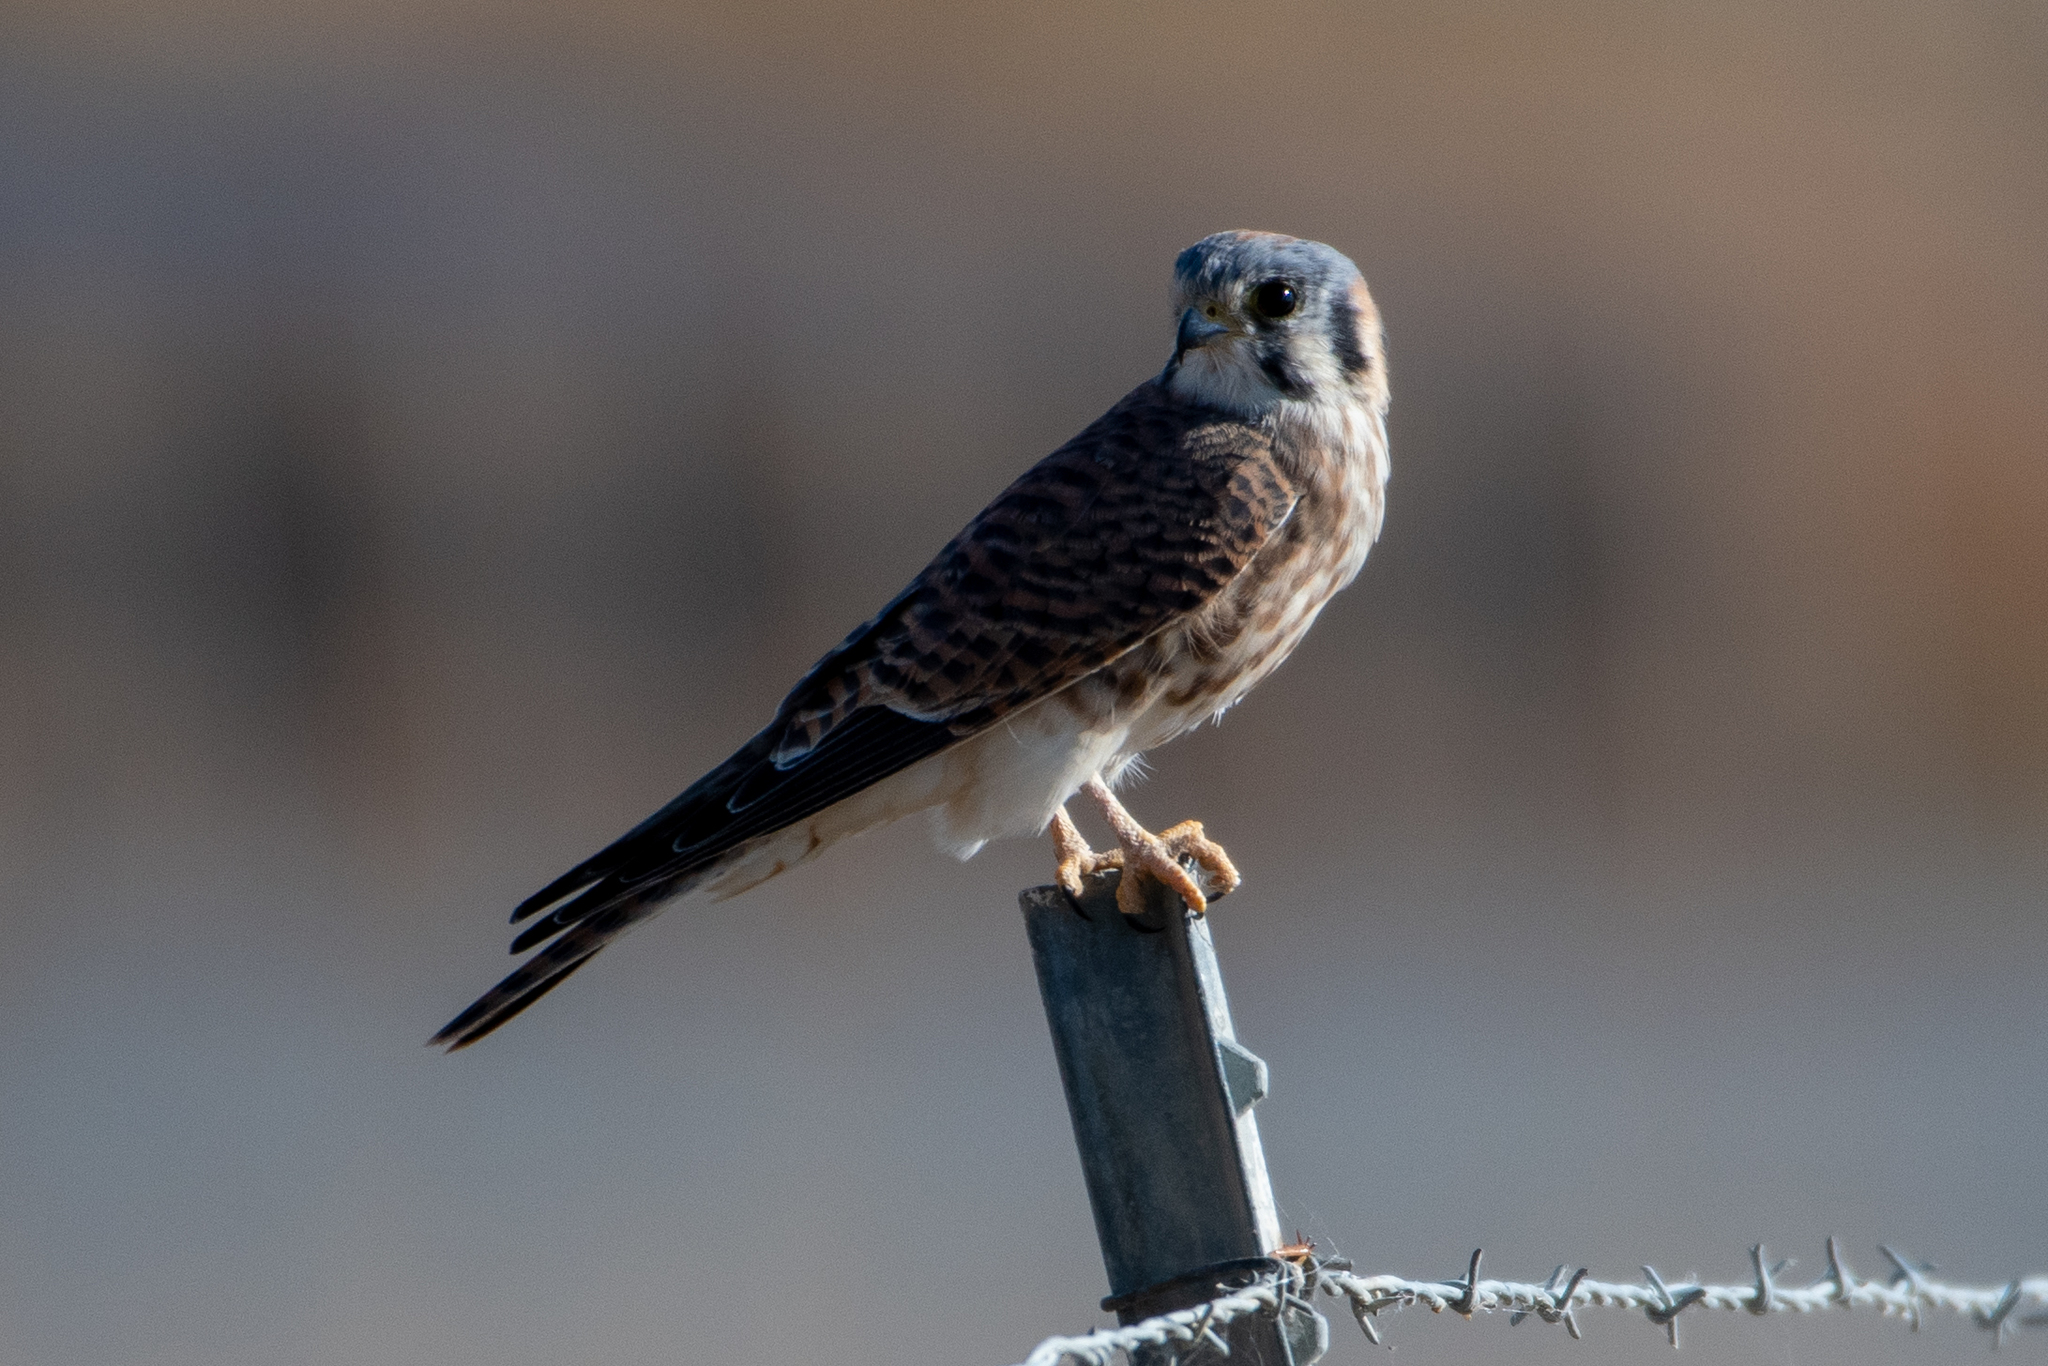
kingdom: Animalia
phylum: Chordata
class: Aves
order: Falconiformes
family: Falconidae
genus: Falco
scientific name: Falco sparverius
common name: American kestrel
